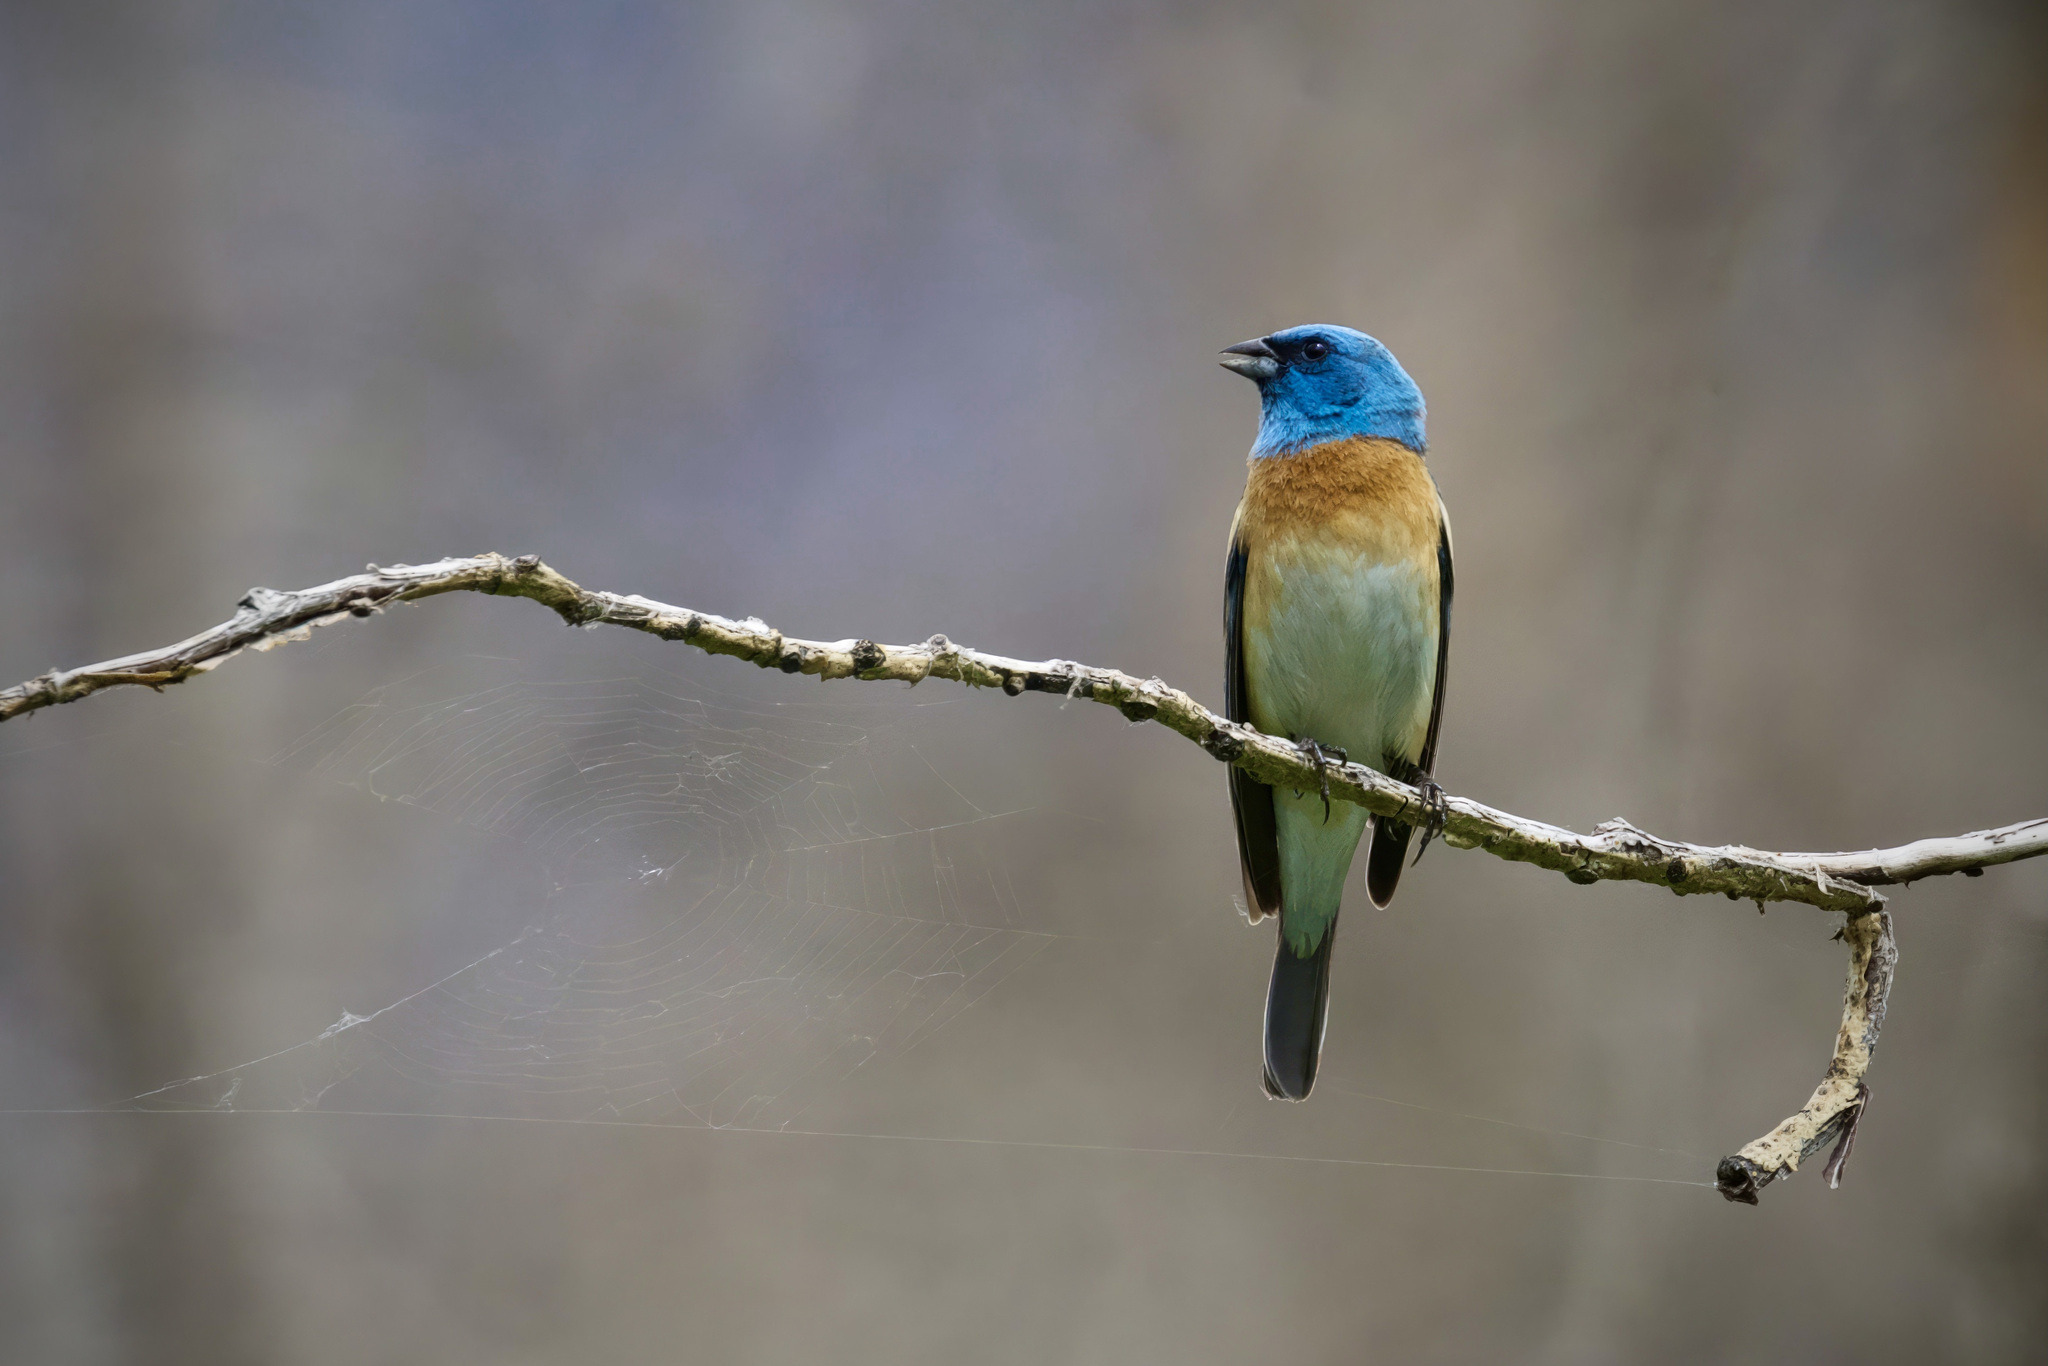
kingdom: Animalia
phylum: Chordata
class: Aves
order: Passeriformes
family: Cardinalidae
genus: Passerina
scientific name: Passerina amoena
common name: Lazuli bunting
